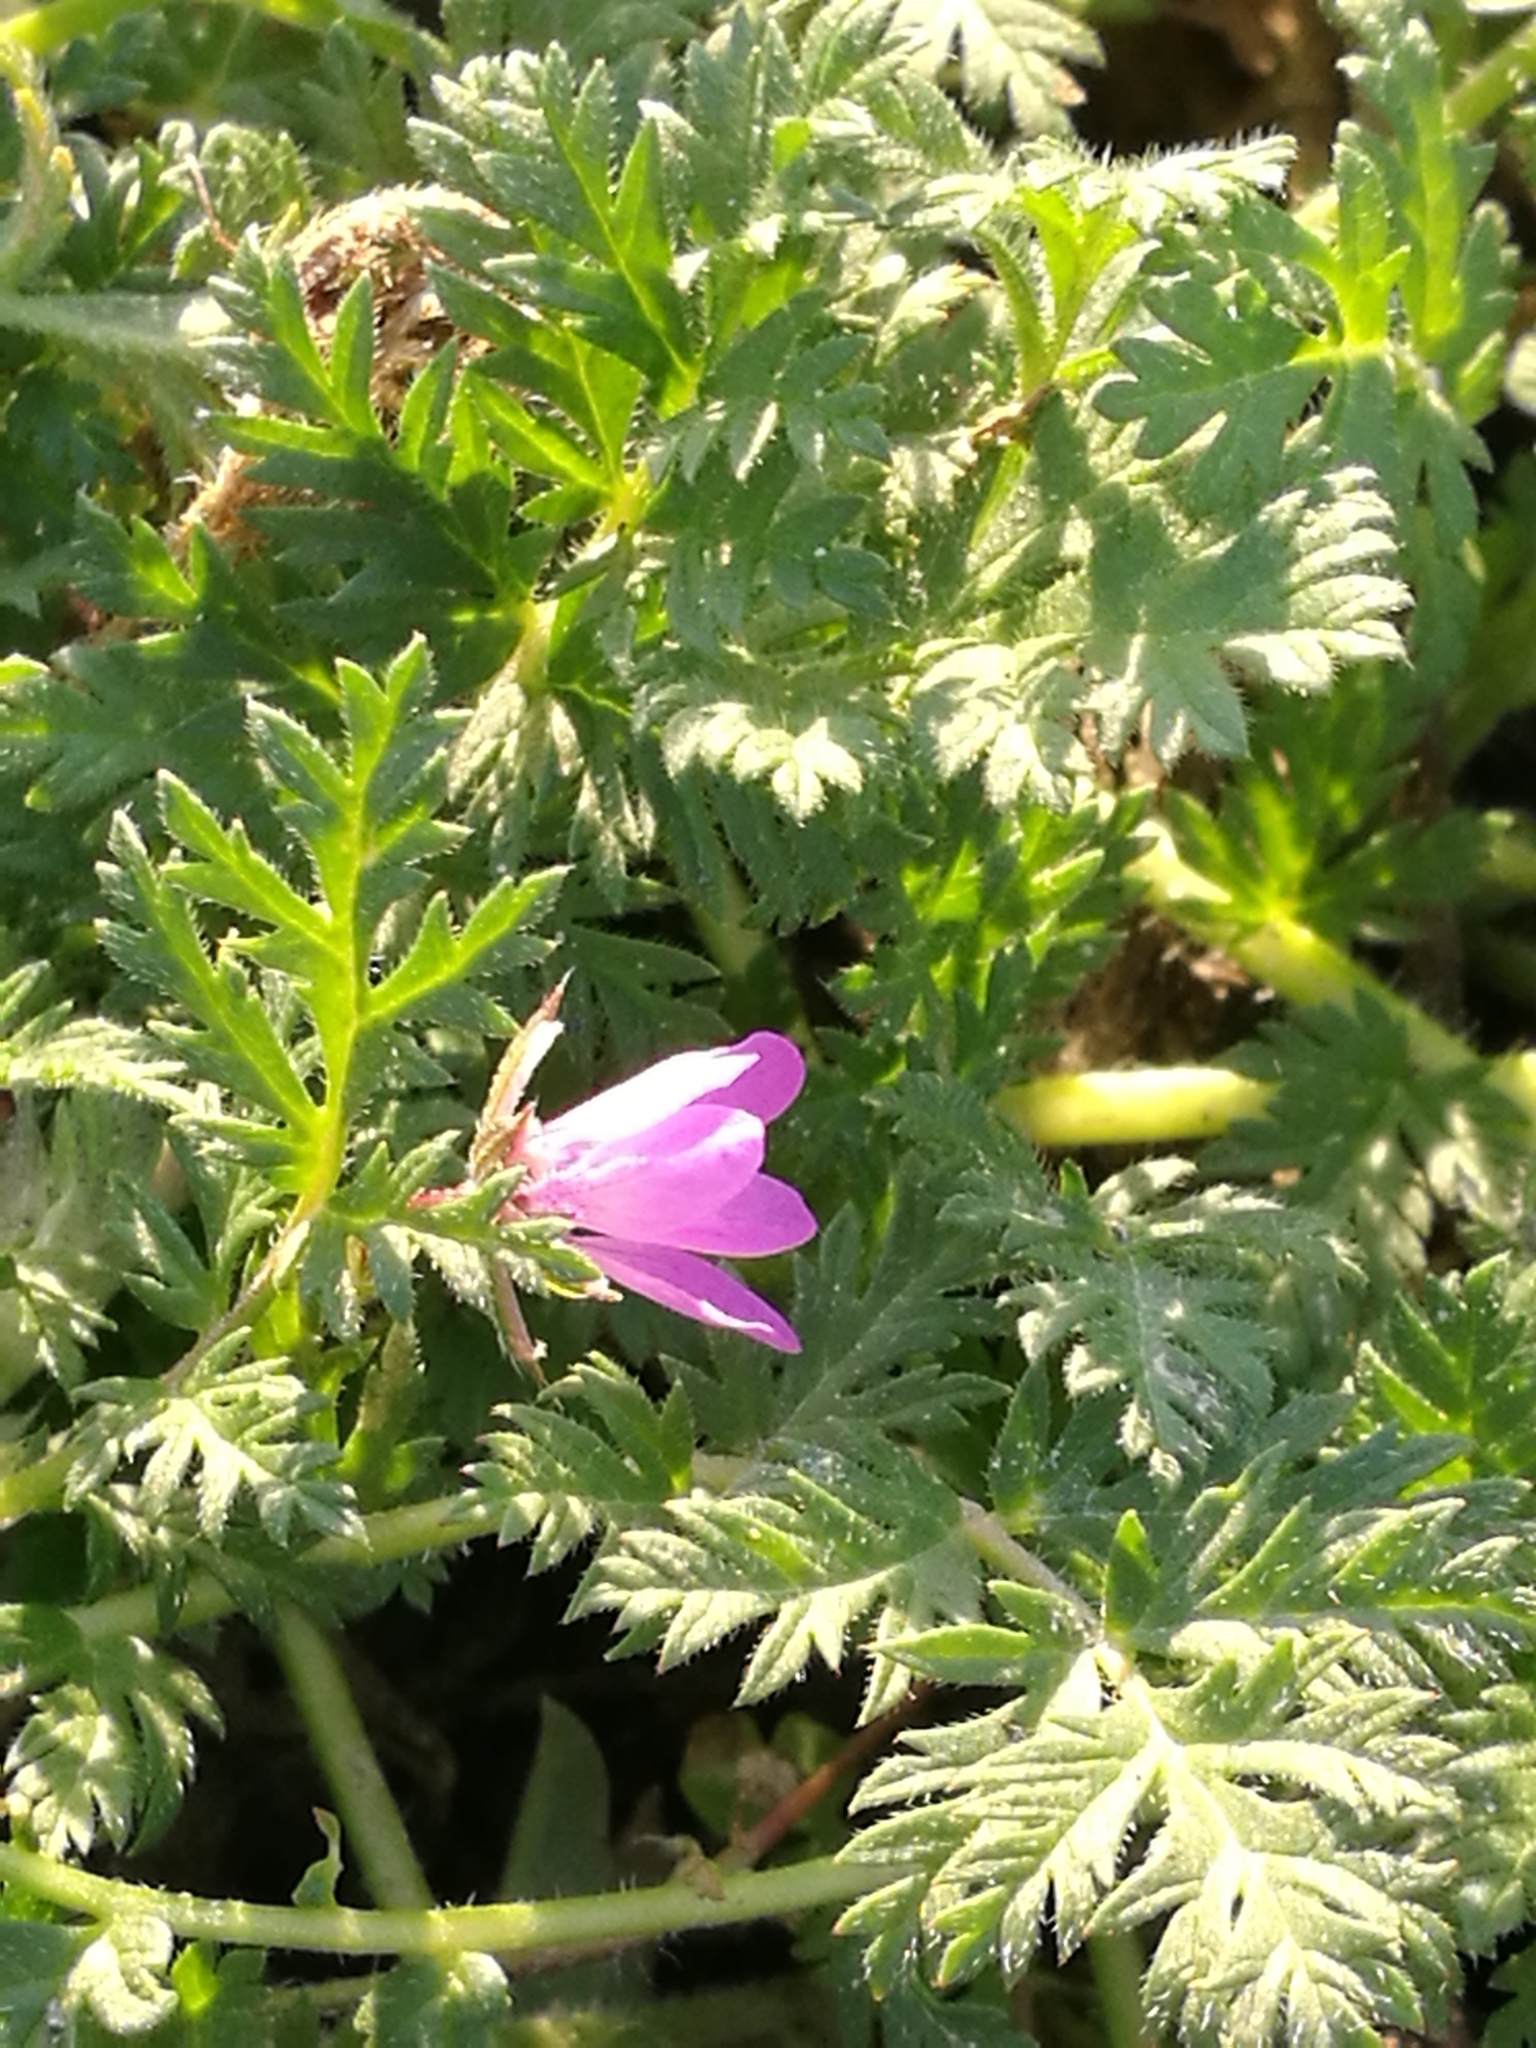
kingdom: Plantae
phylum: Tracheophyta
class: Magnoliopsida
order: Geraniales
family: Geraniaceae
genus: Erodium
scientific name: Erodium cicutarium
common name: Common stork's-bill
